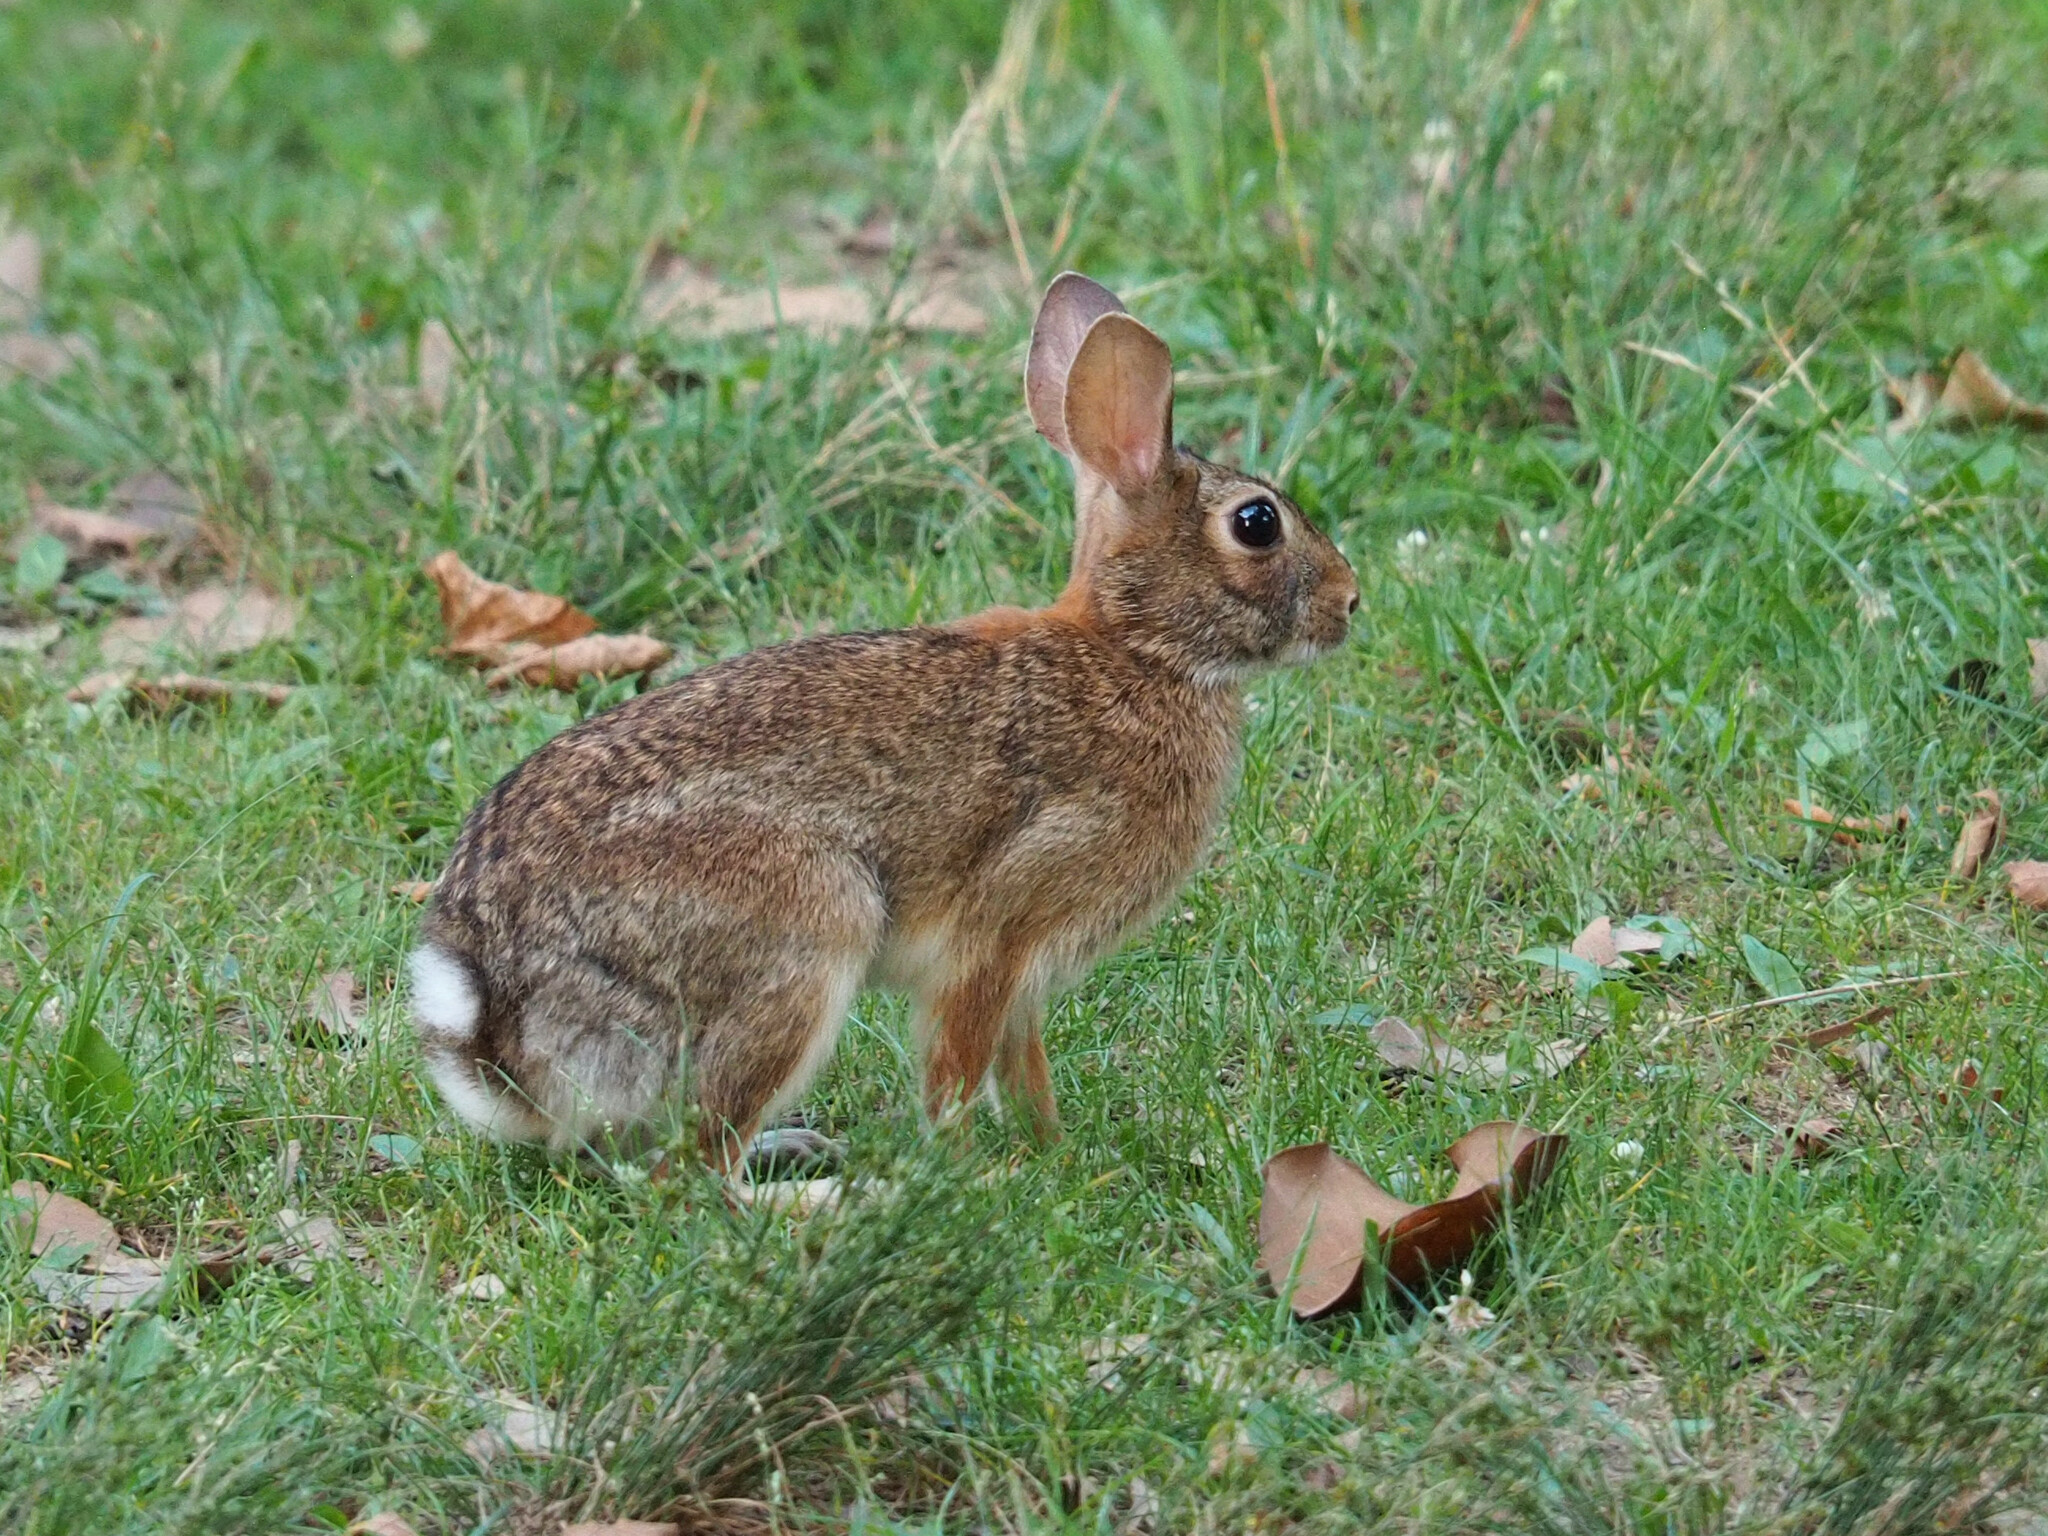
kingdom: Animalia
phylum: Chordata
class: Mammalia
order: Lagomorpha
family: Leporidae
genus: Sylvilagus
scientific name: Sylvilagus floridanus
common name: Eastern cottontail
